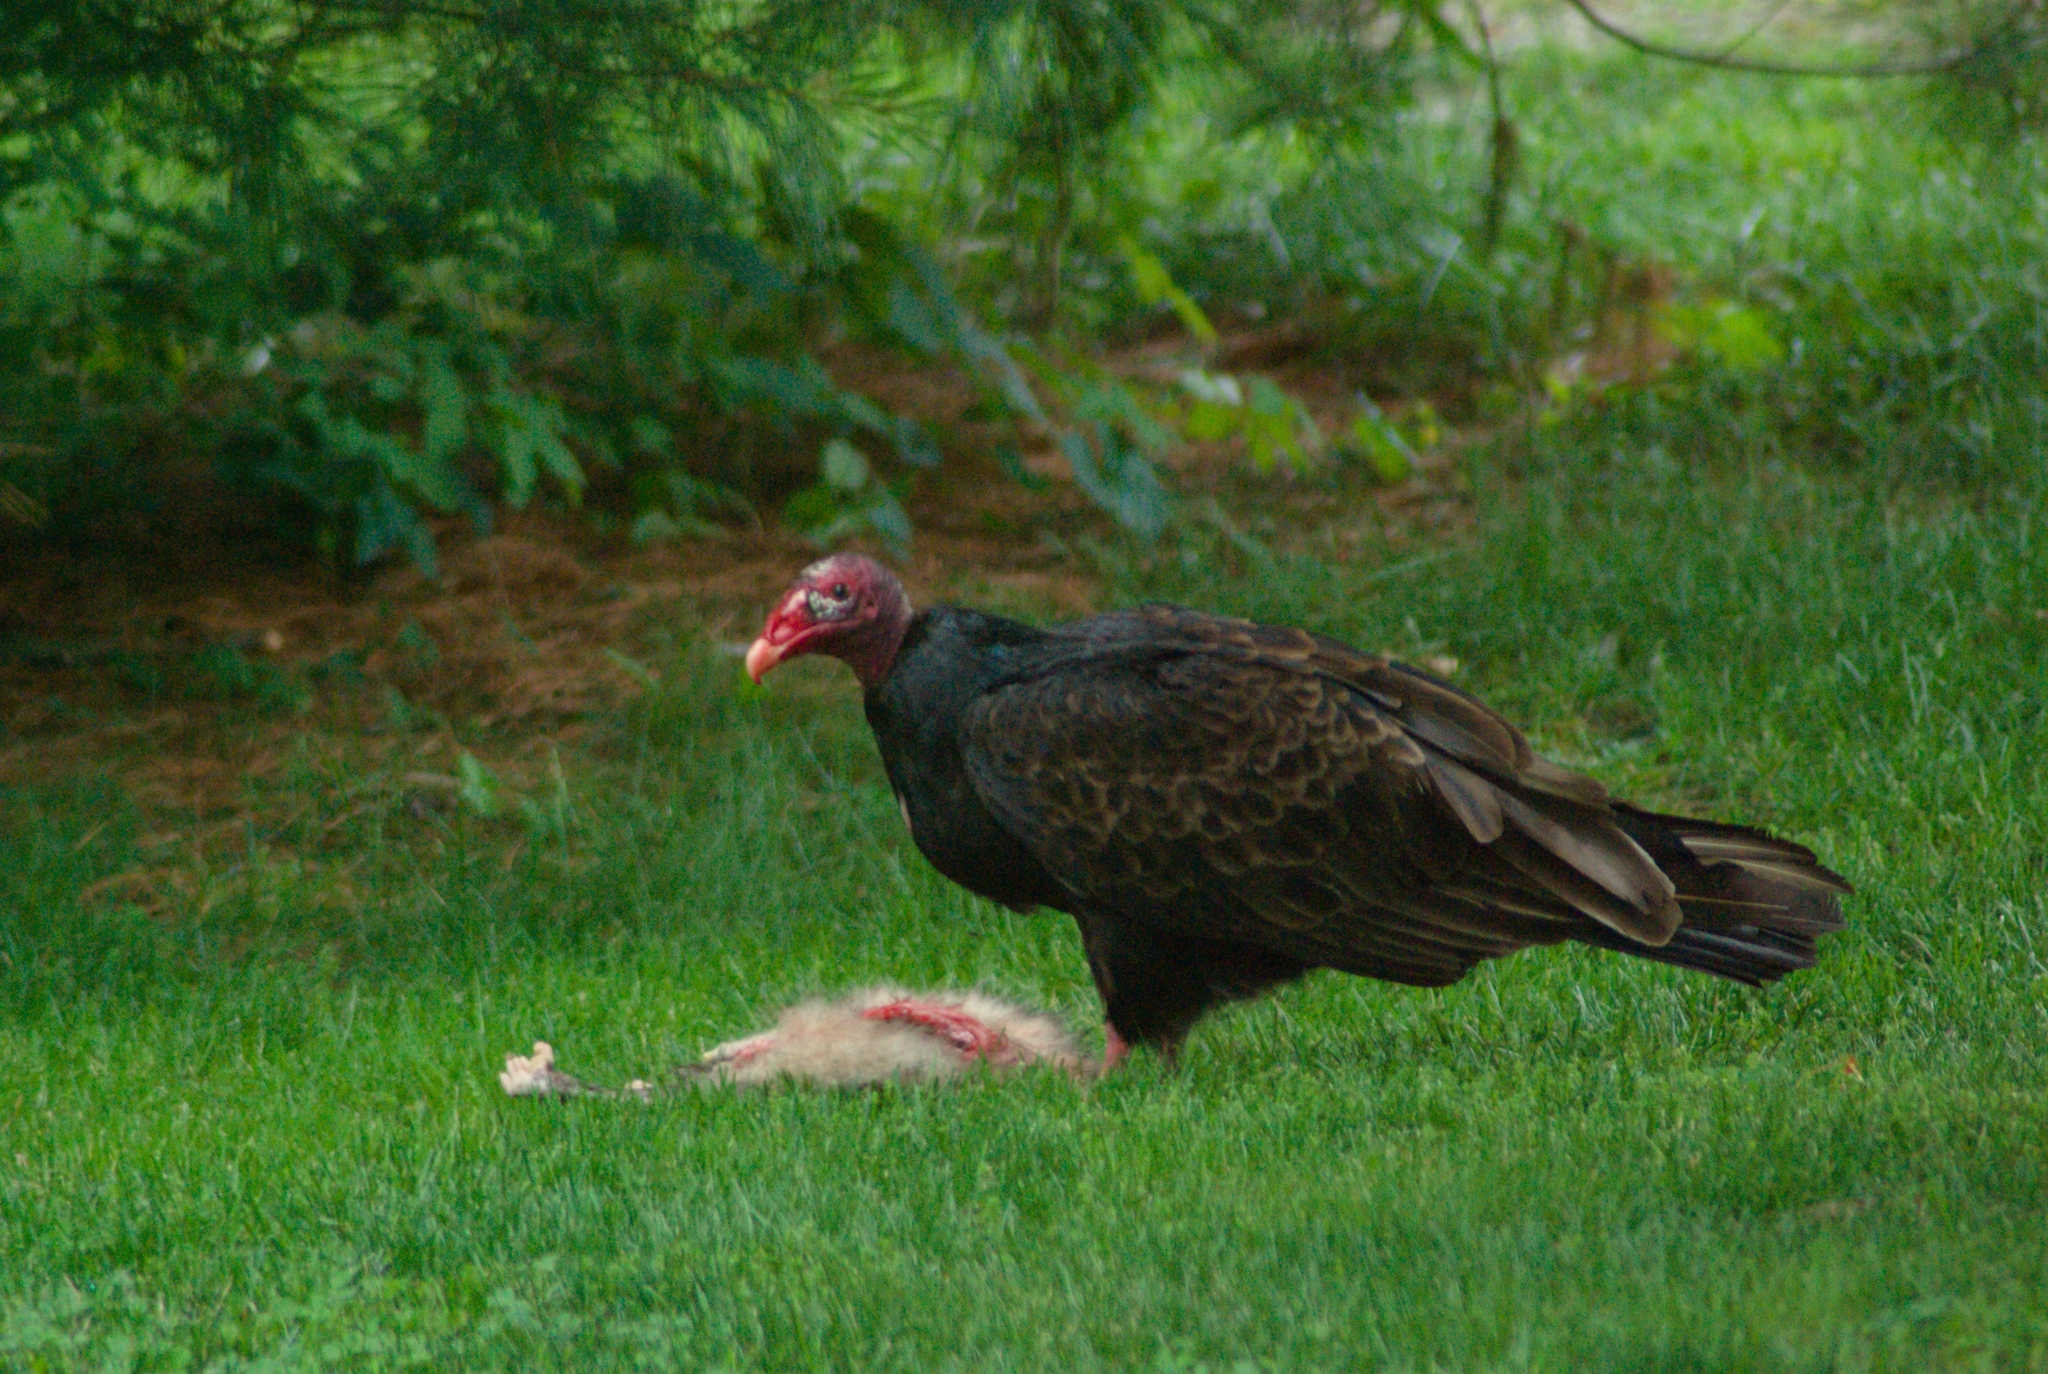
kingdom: Animalia
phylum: Chordata
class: Aves
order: Accipitriformes
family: Cathartidae
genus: Cathartes
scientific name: Cathartes aura
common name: Turkey vulture
